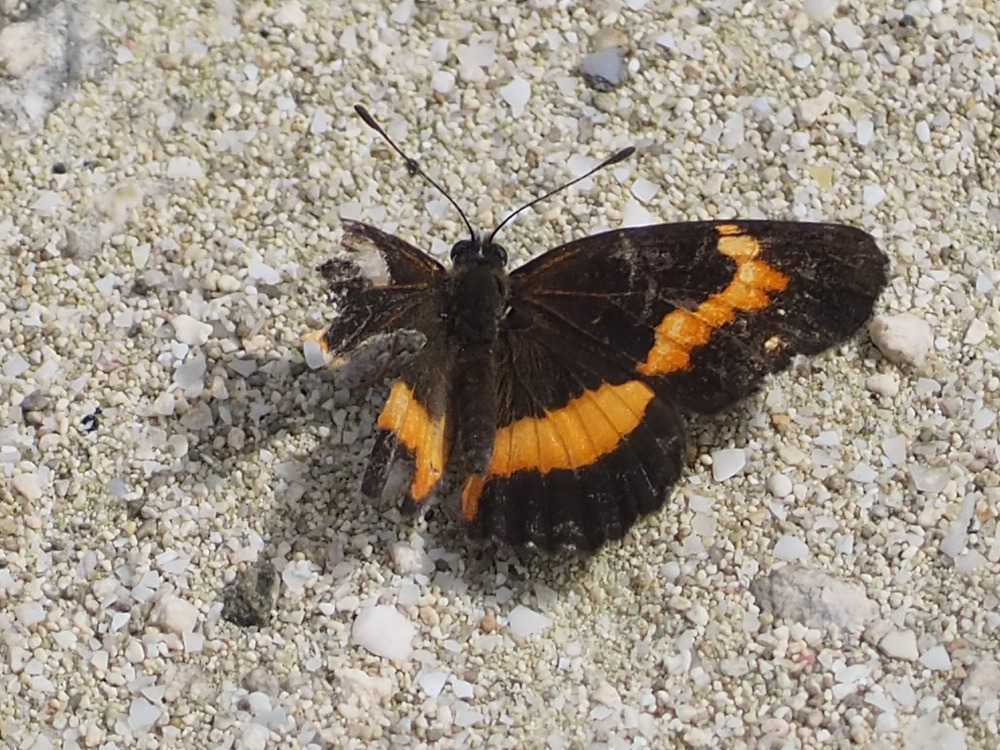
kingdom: Animalia
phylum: Arthropoda
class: Insecta
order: Lepidoptera
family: Nymphalidae
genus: Chlosyne
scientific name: Chlosyne lacinia
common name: Bordered patch
